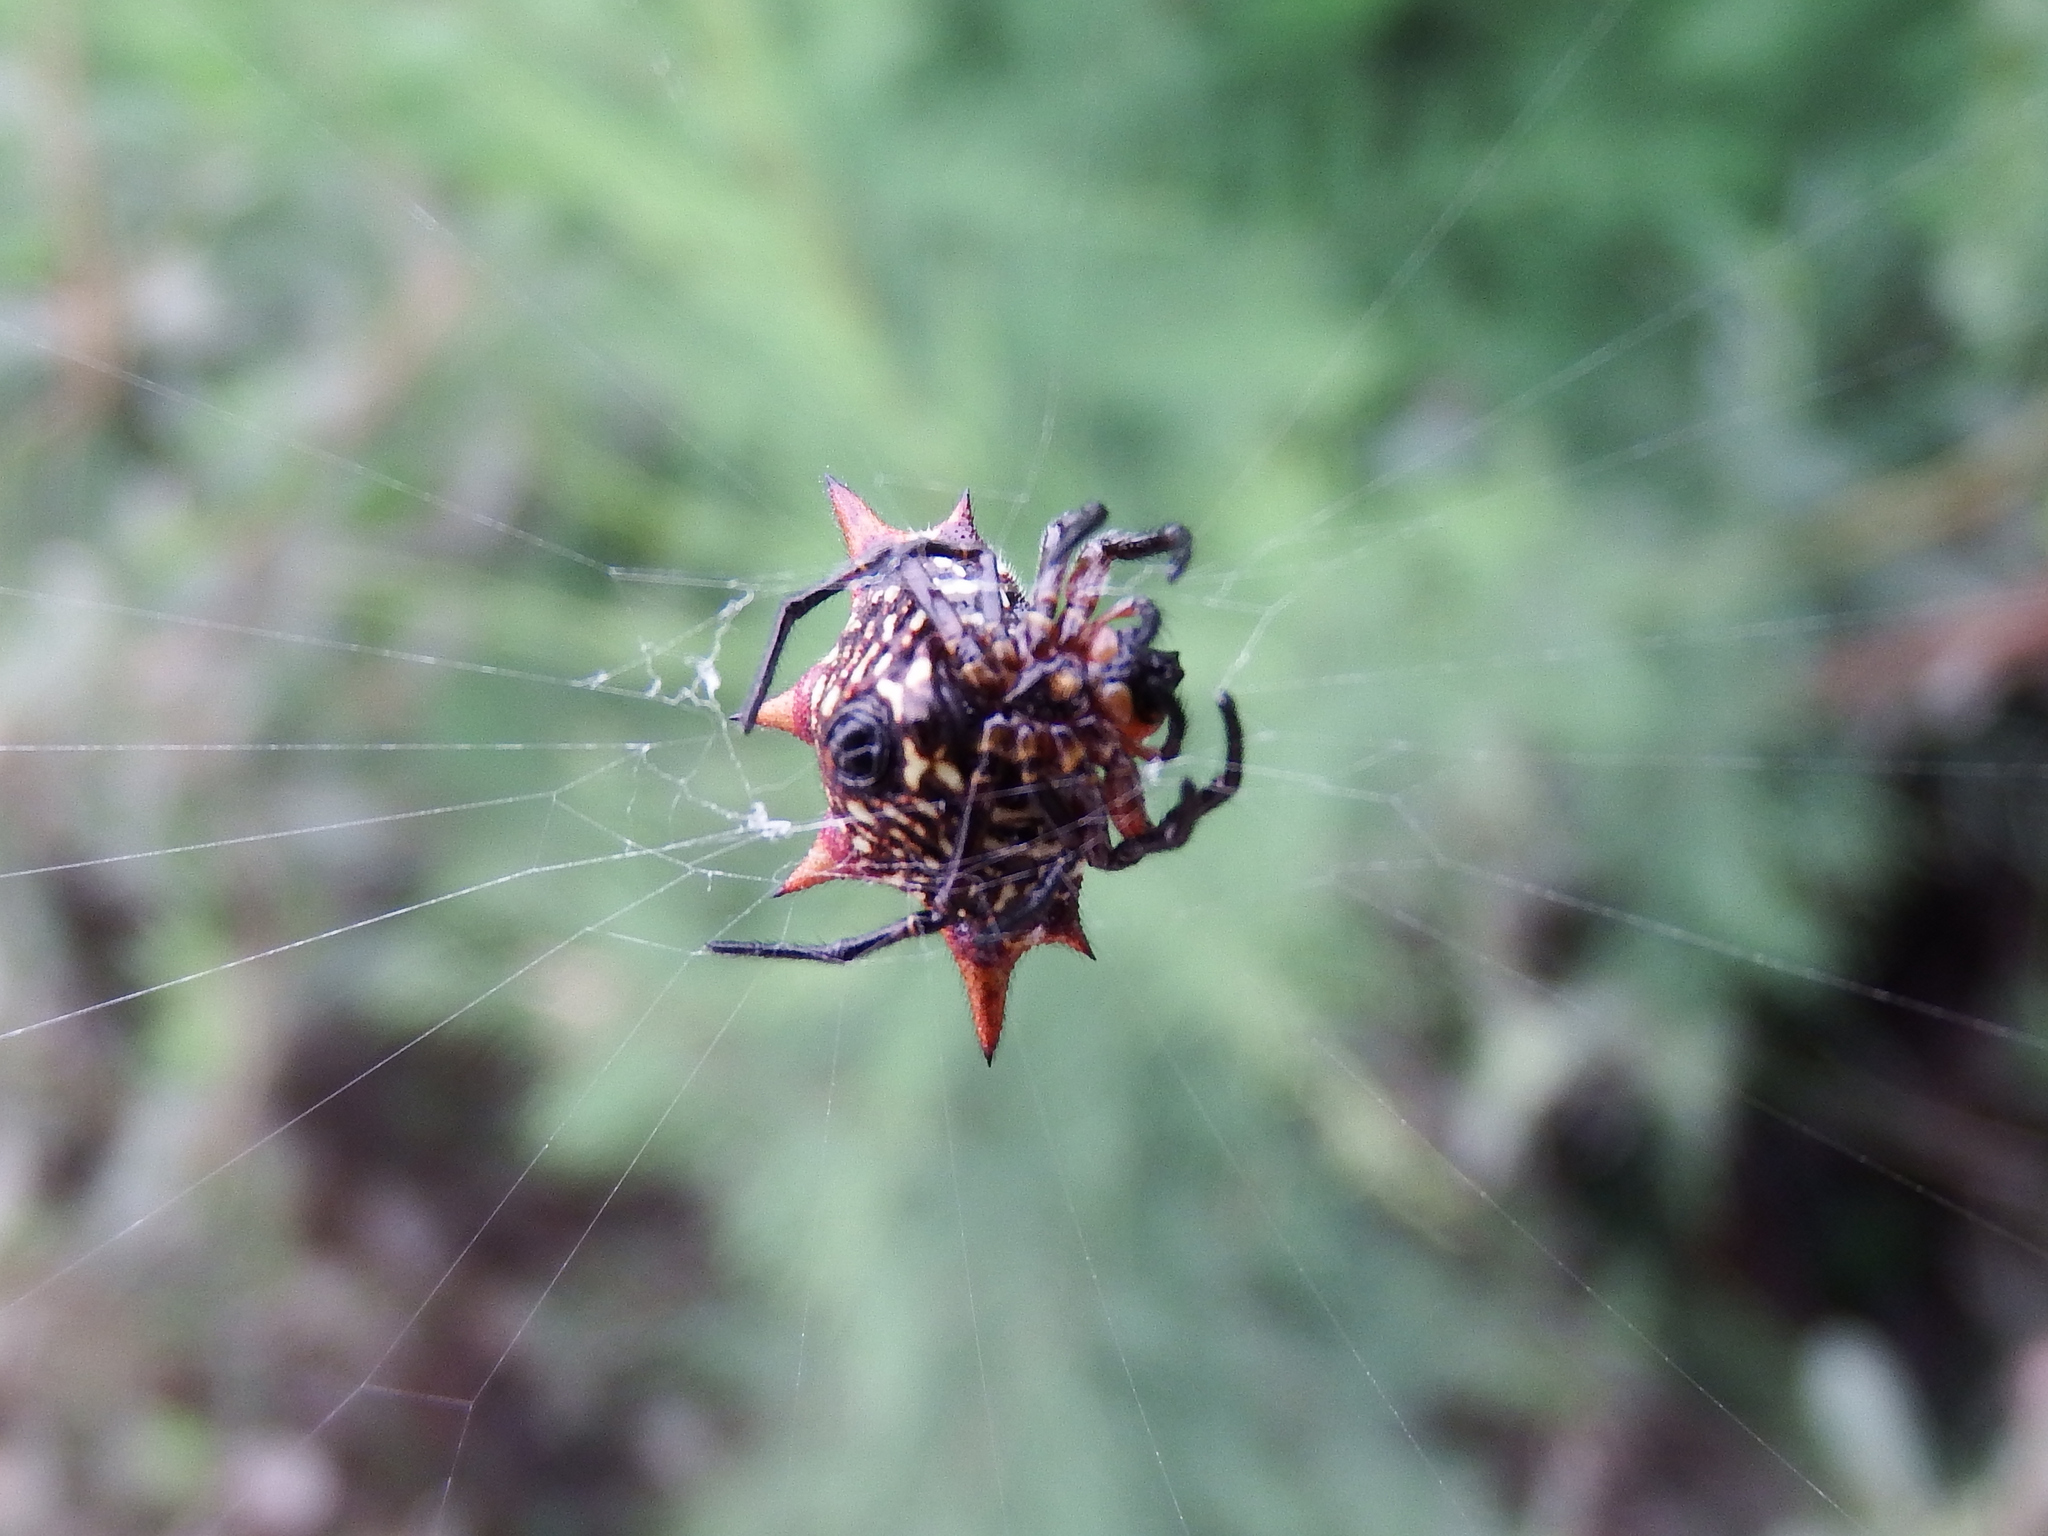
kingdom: Animalia
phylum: Arthropoda
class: Arachnida
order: Araneae
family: Araneidae
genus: Gasteracantha
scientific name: Gasteracantha cancriformis
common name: Orb weavers
